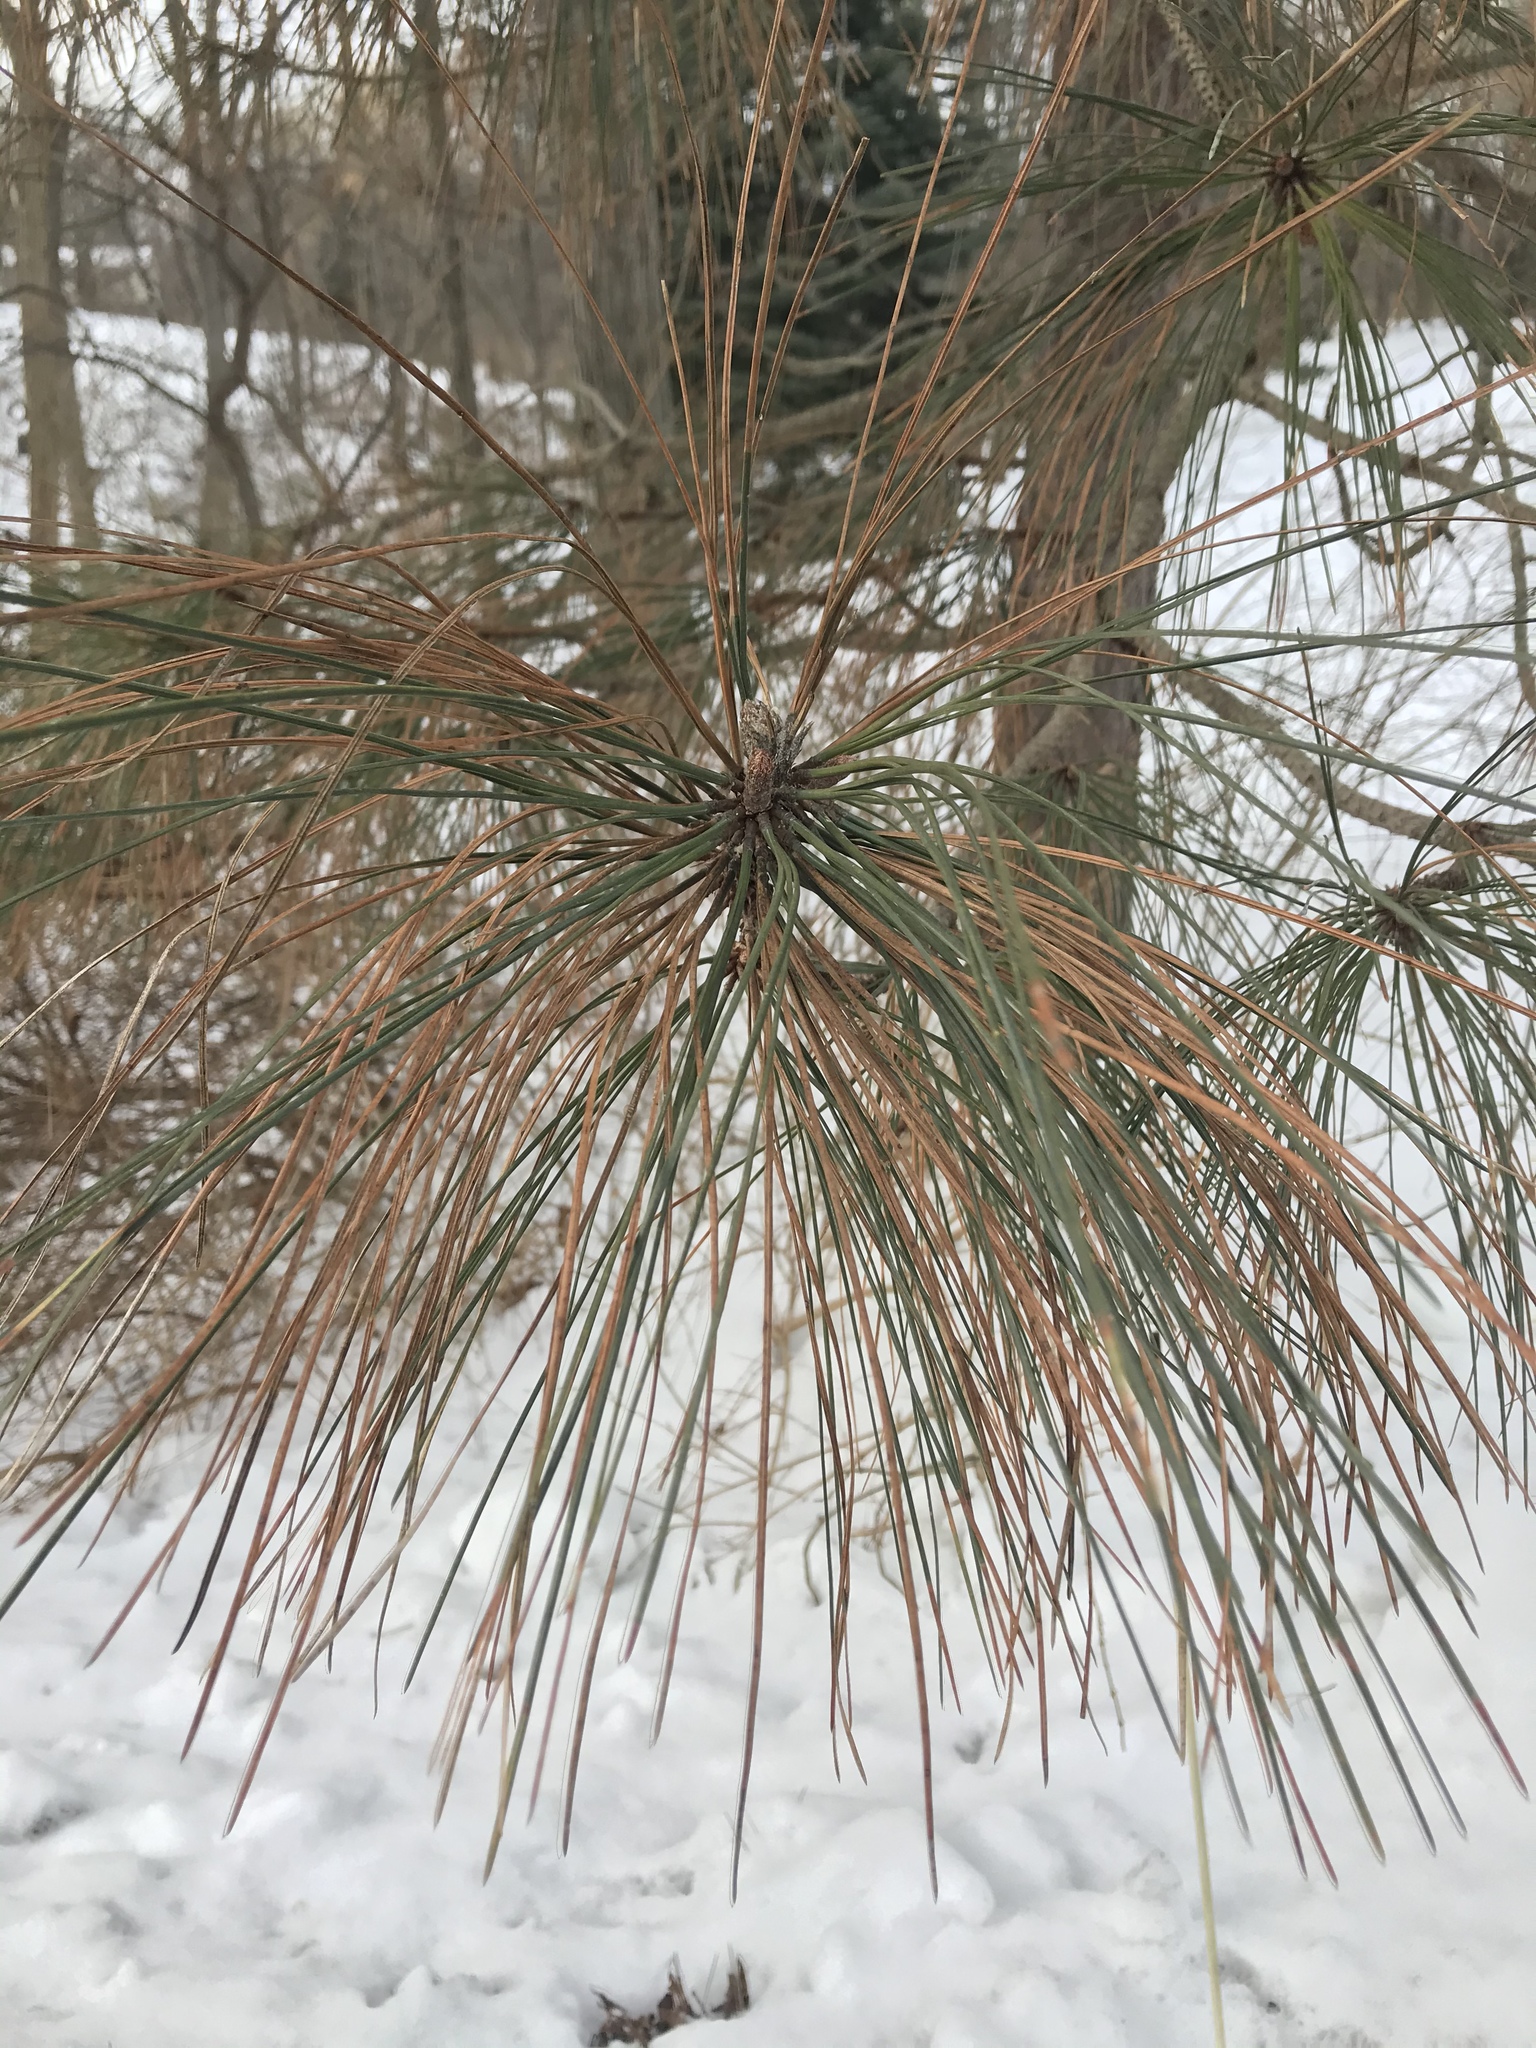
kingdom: Plantae
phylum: Tracheophyta
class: Pinopsida
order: Pinales
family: Pinaceae
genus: Pinus
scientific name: Pinus strobus
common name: Weymouth pine
